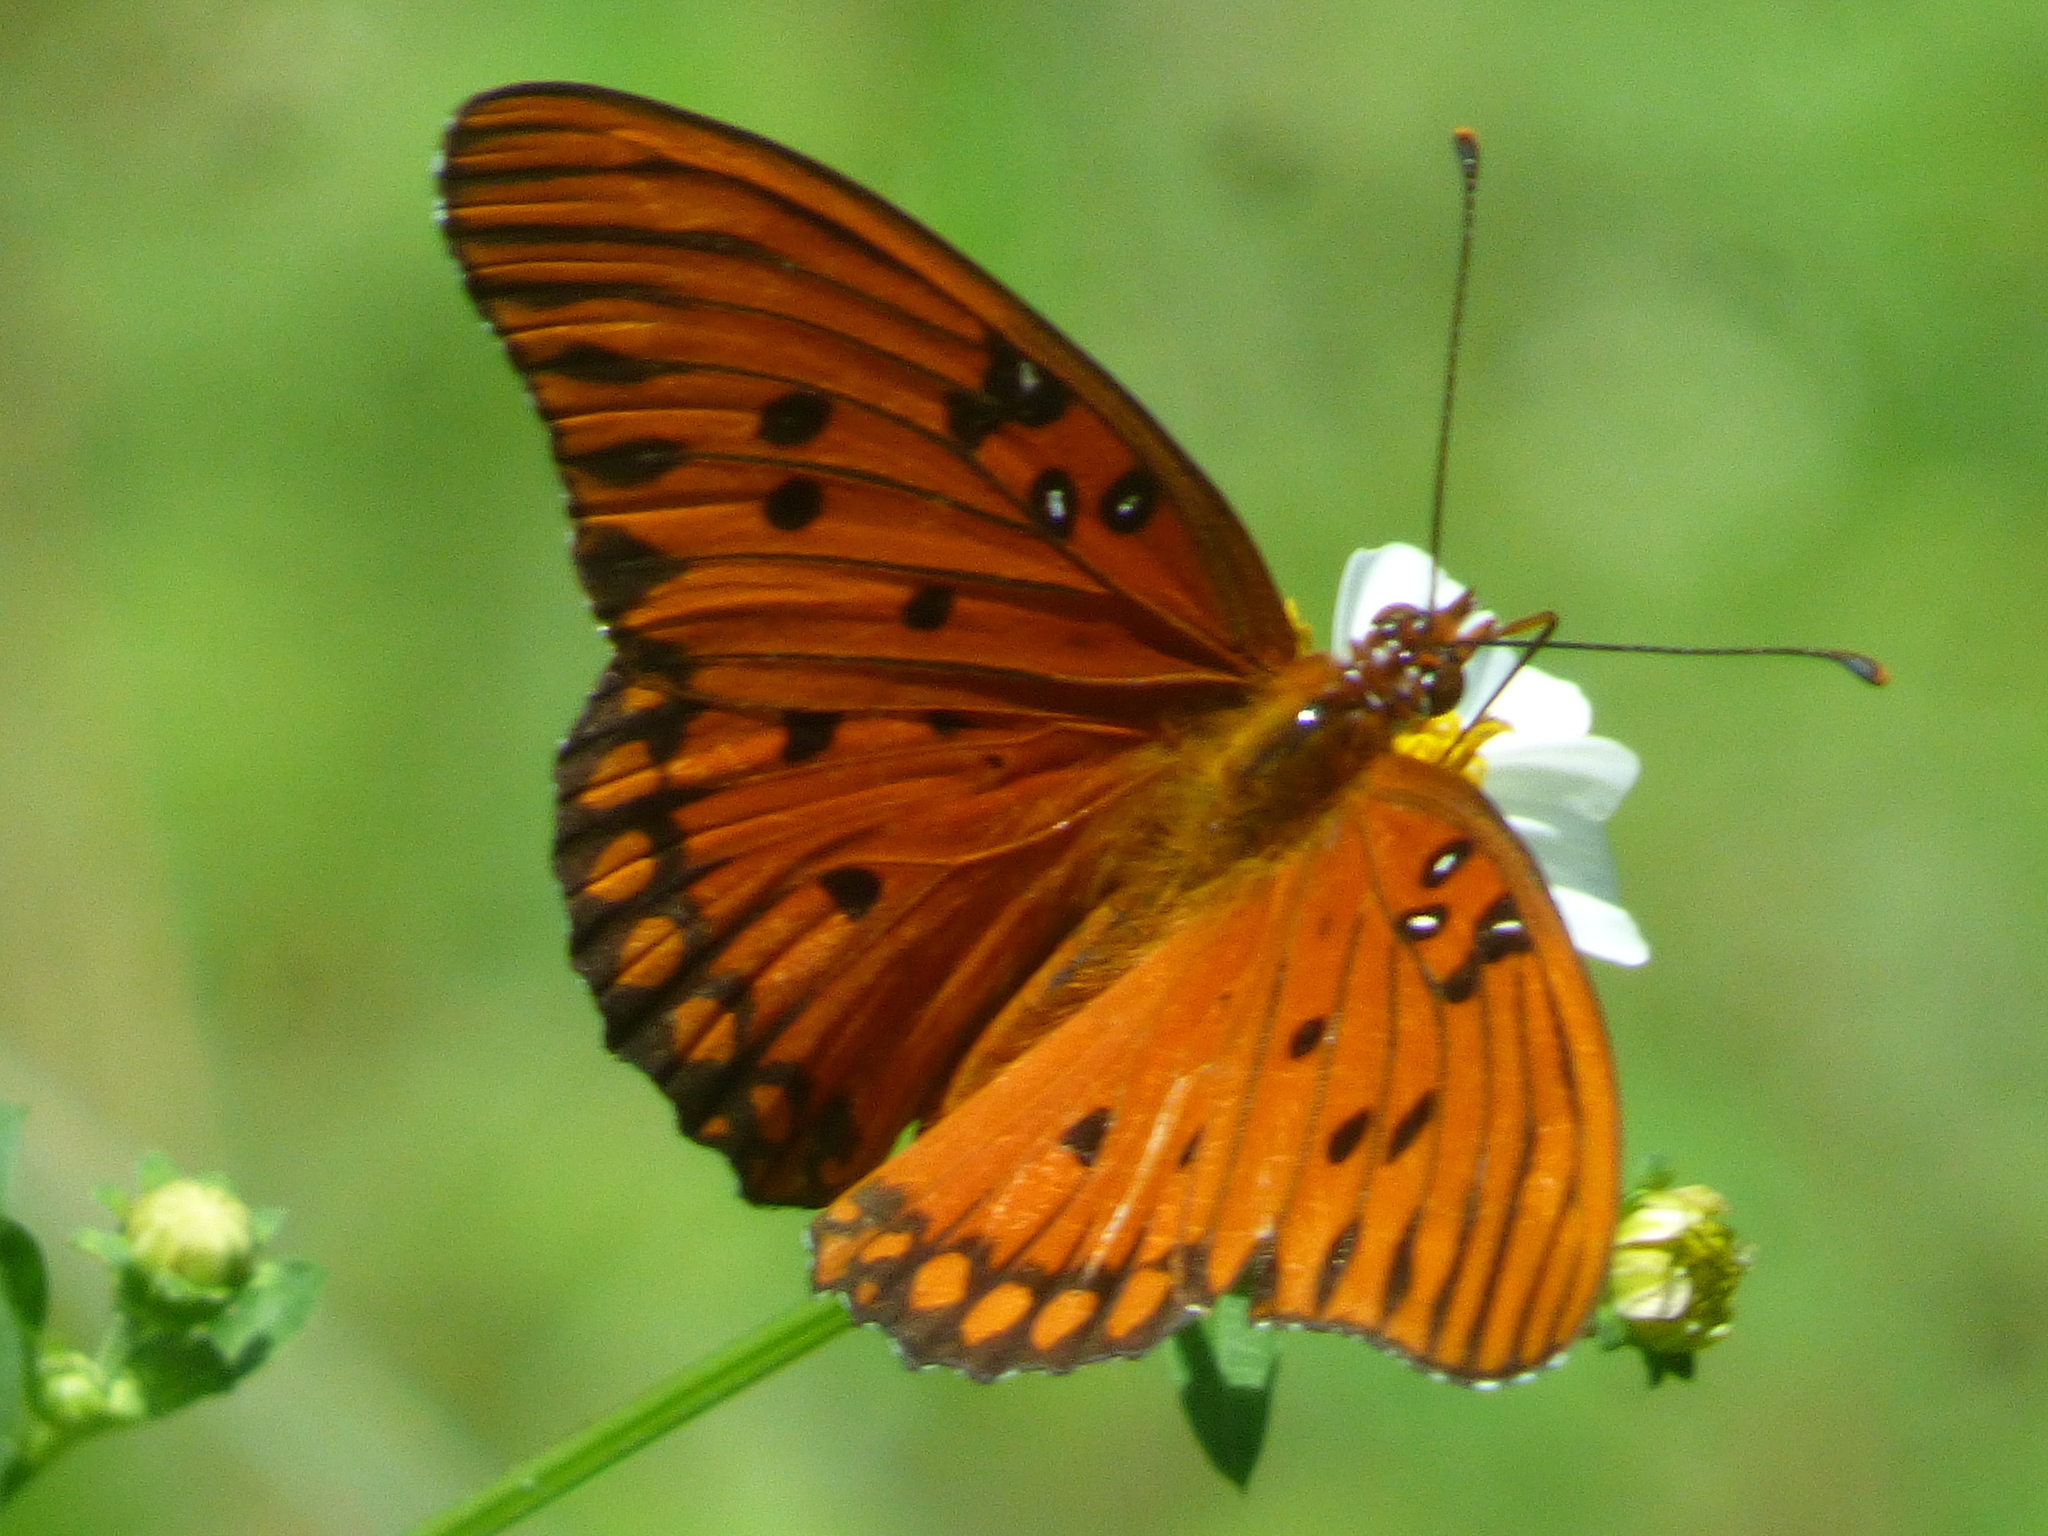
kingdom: Animalia
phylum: Arthropoda
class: Insecta
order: Lepidoptera
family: Nymphalidae
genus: Dione
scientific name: Dione vanillae
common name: Gulf fritillary
